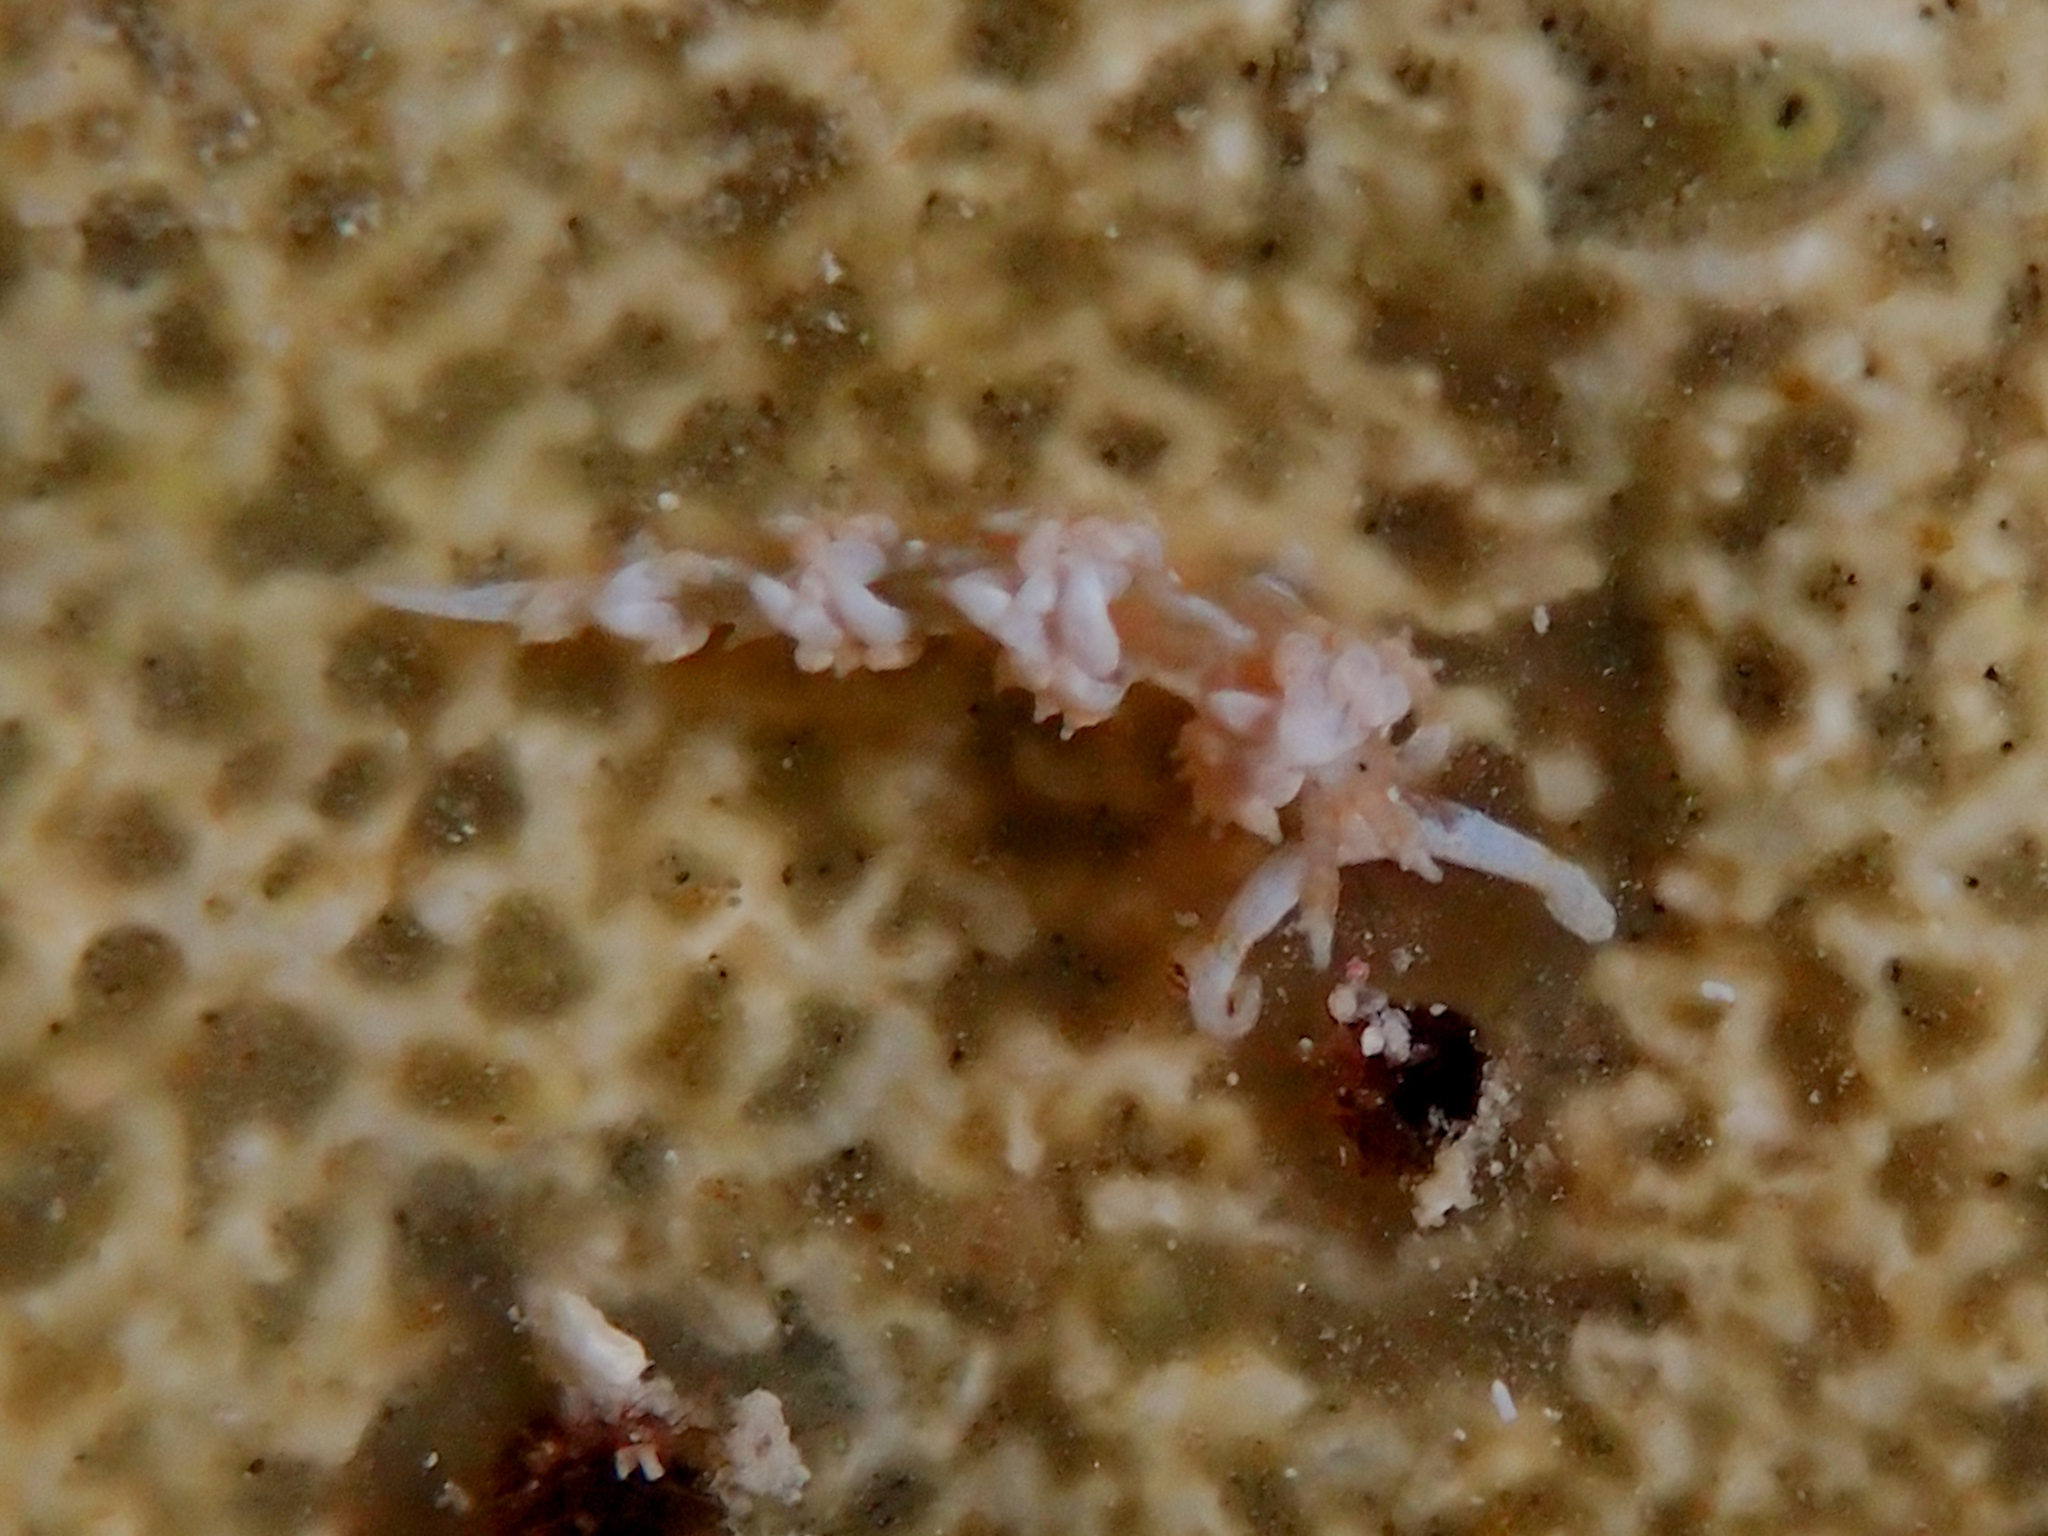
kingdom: Animalia
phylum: Mollusca
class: Gastropoda
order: Nudibranchia
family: Facelinidae
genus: Palisa
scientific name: Palisa papillata
